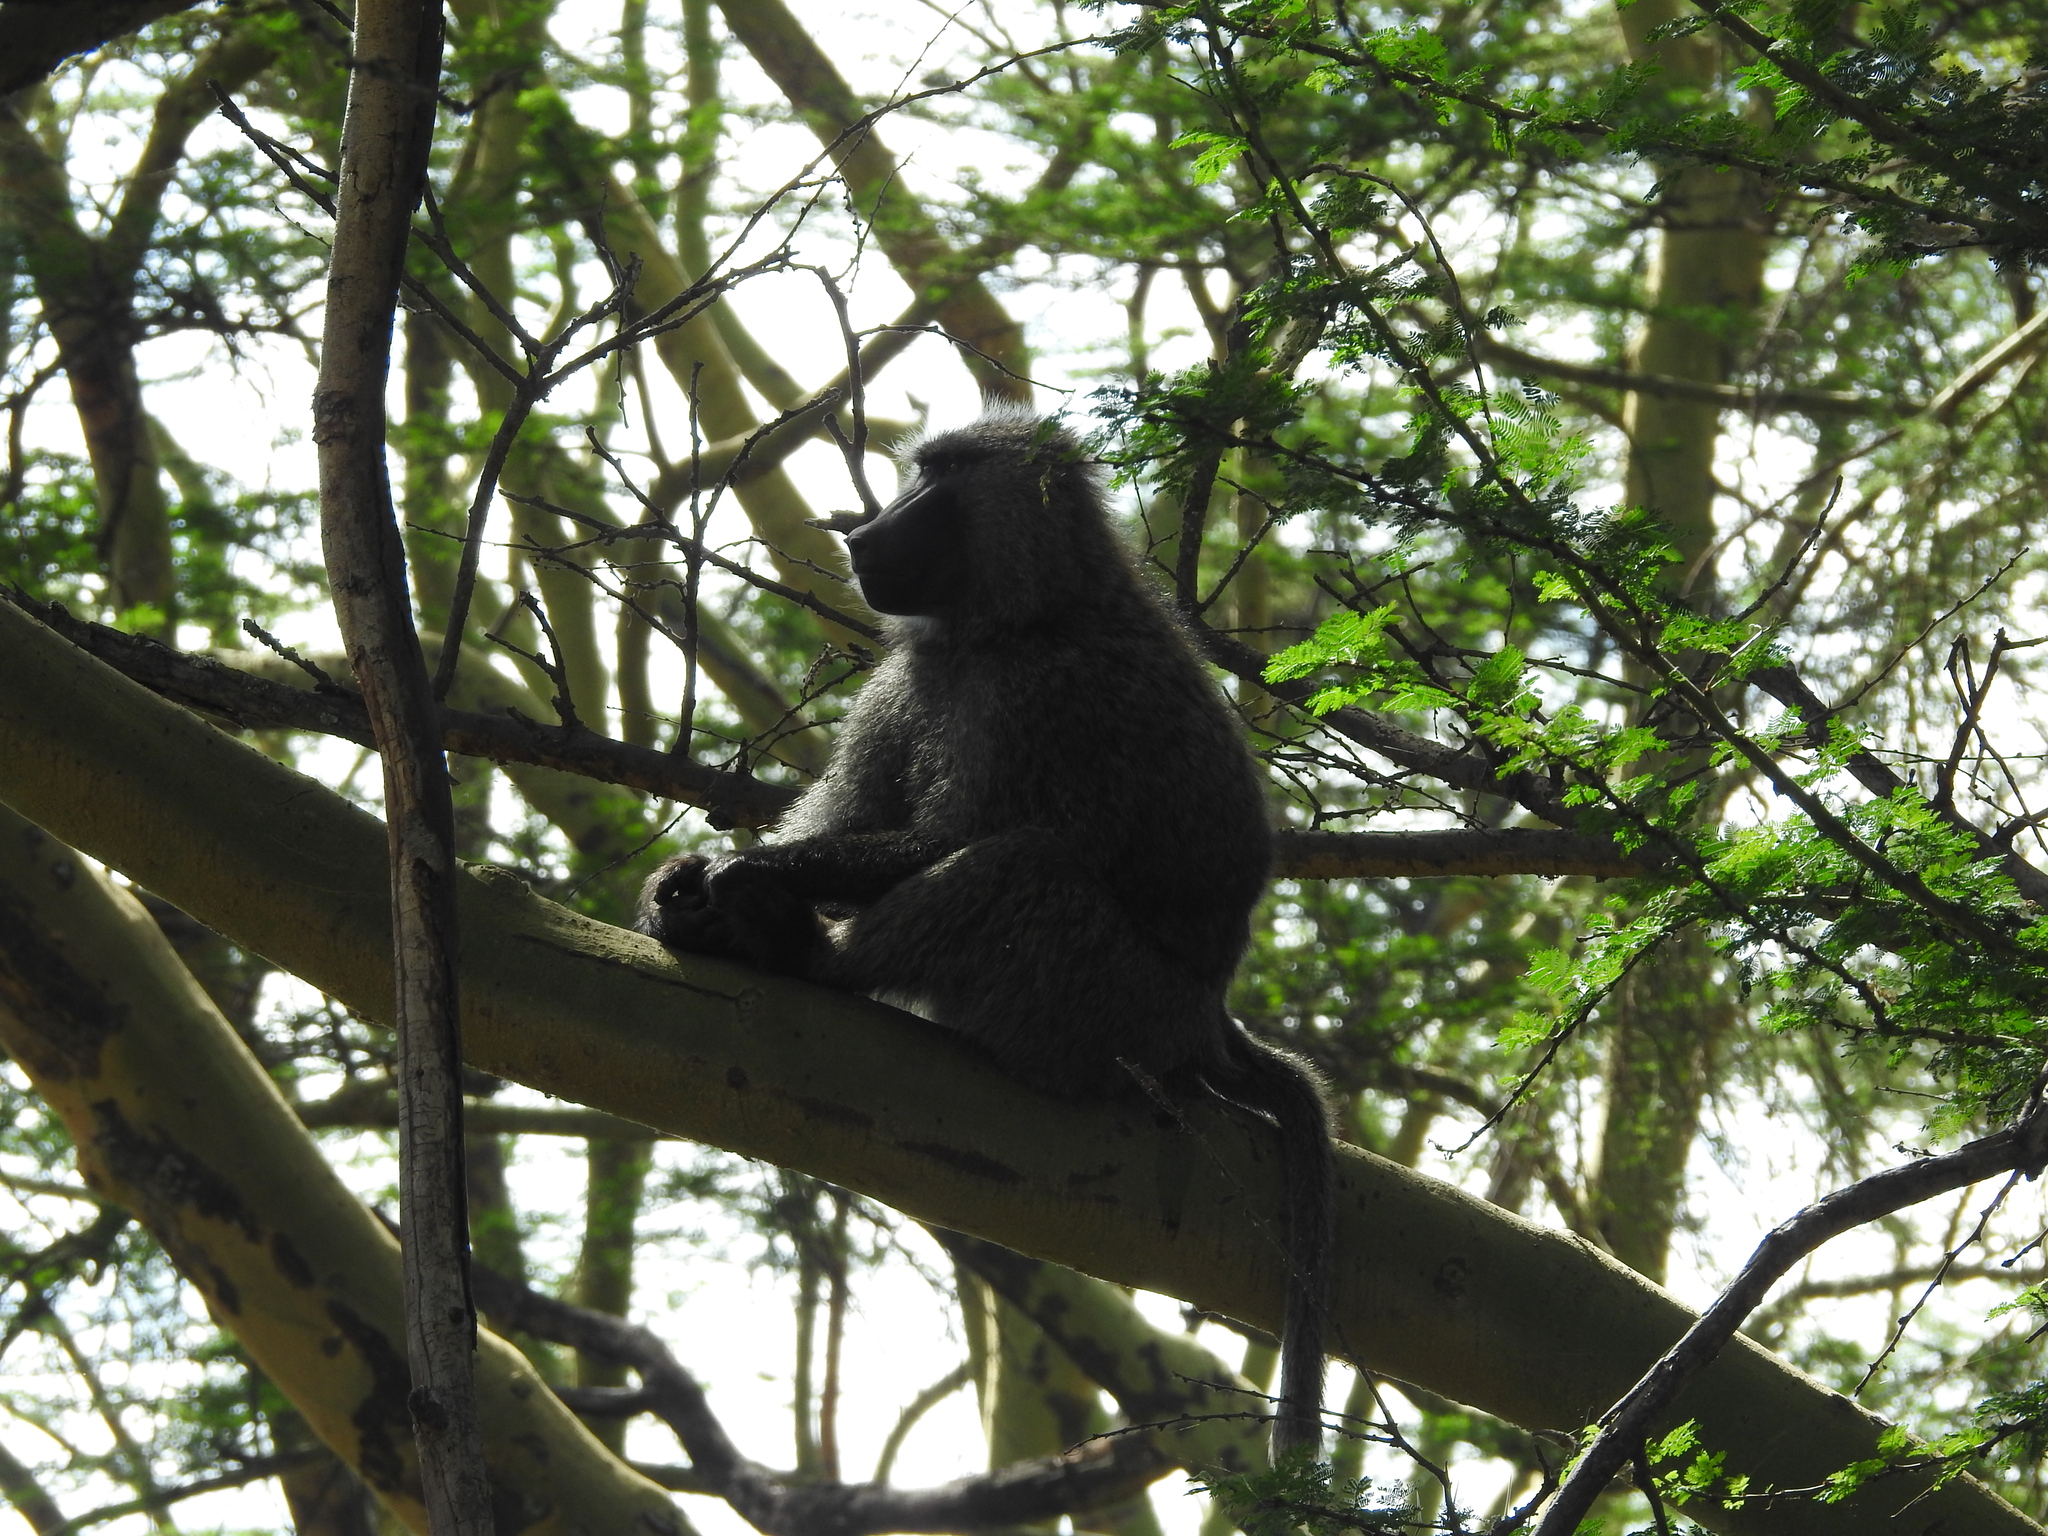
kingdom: Animalia
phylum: Chordata
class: Mammalia
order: Primates
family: Cercopithecidae
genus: Papio
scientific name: Papio anubis
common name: Olive baboon
